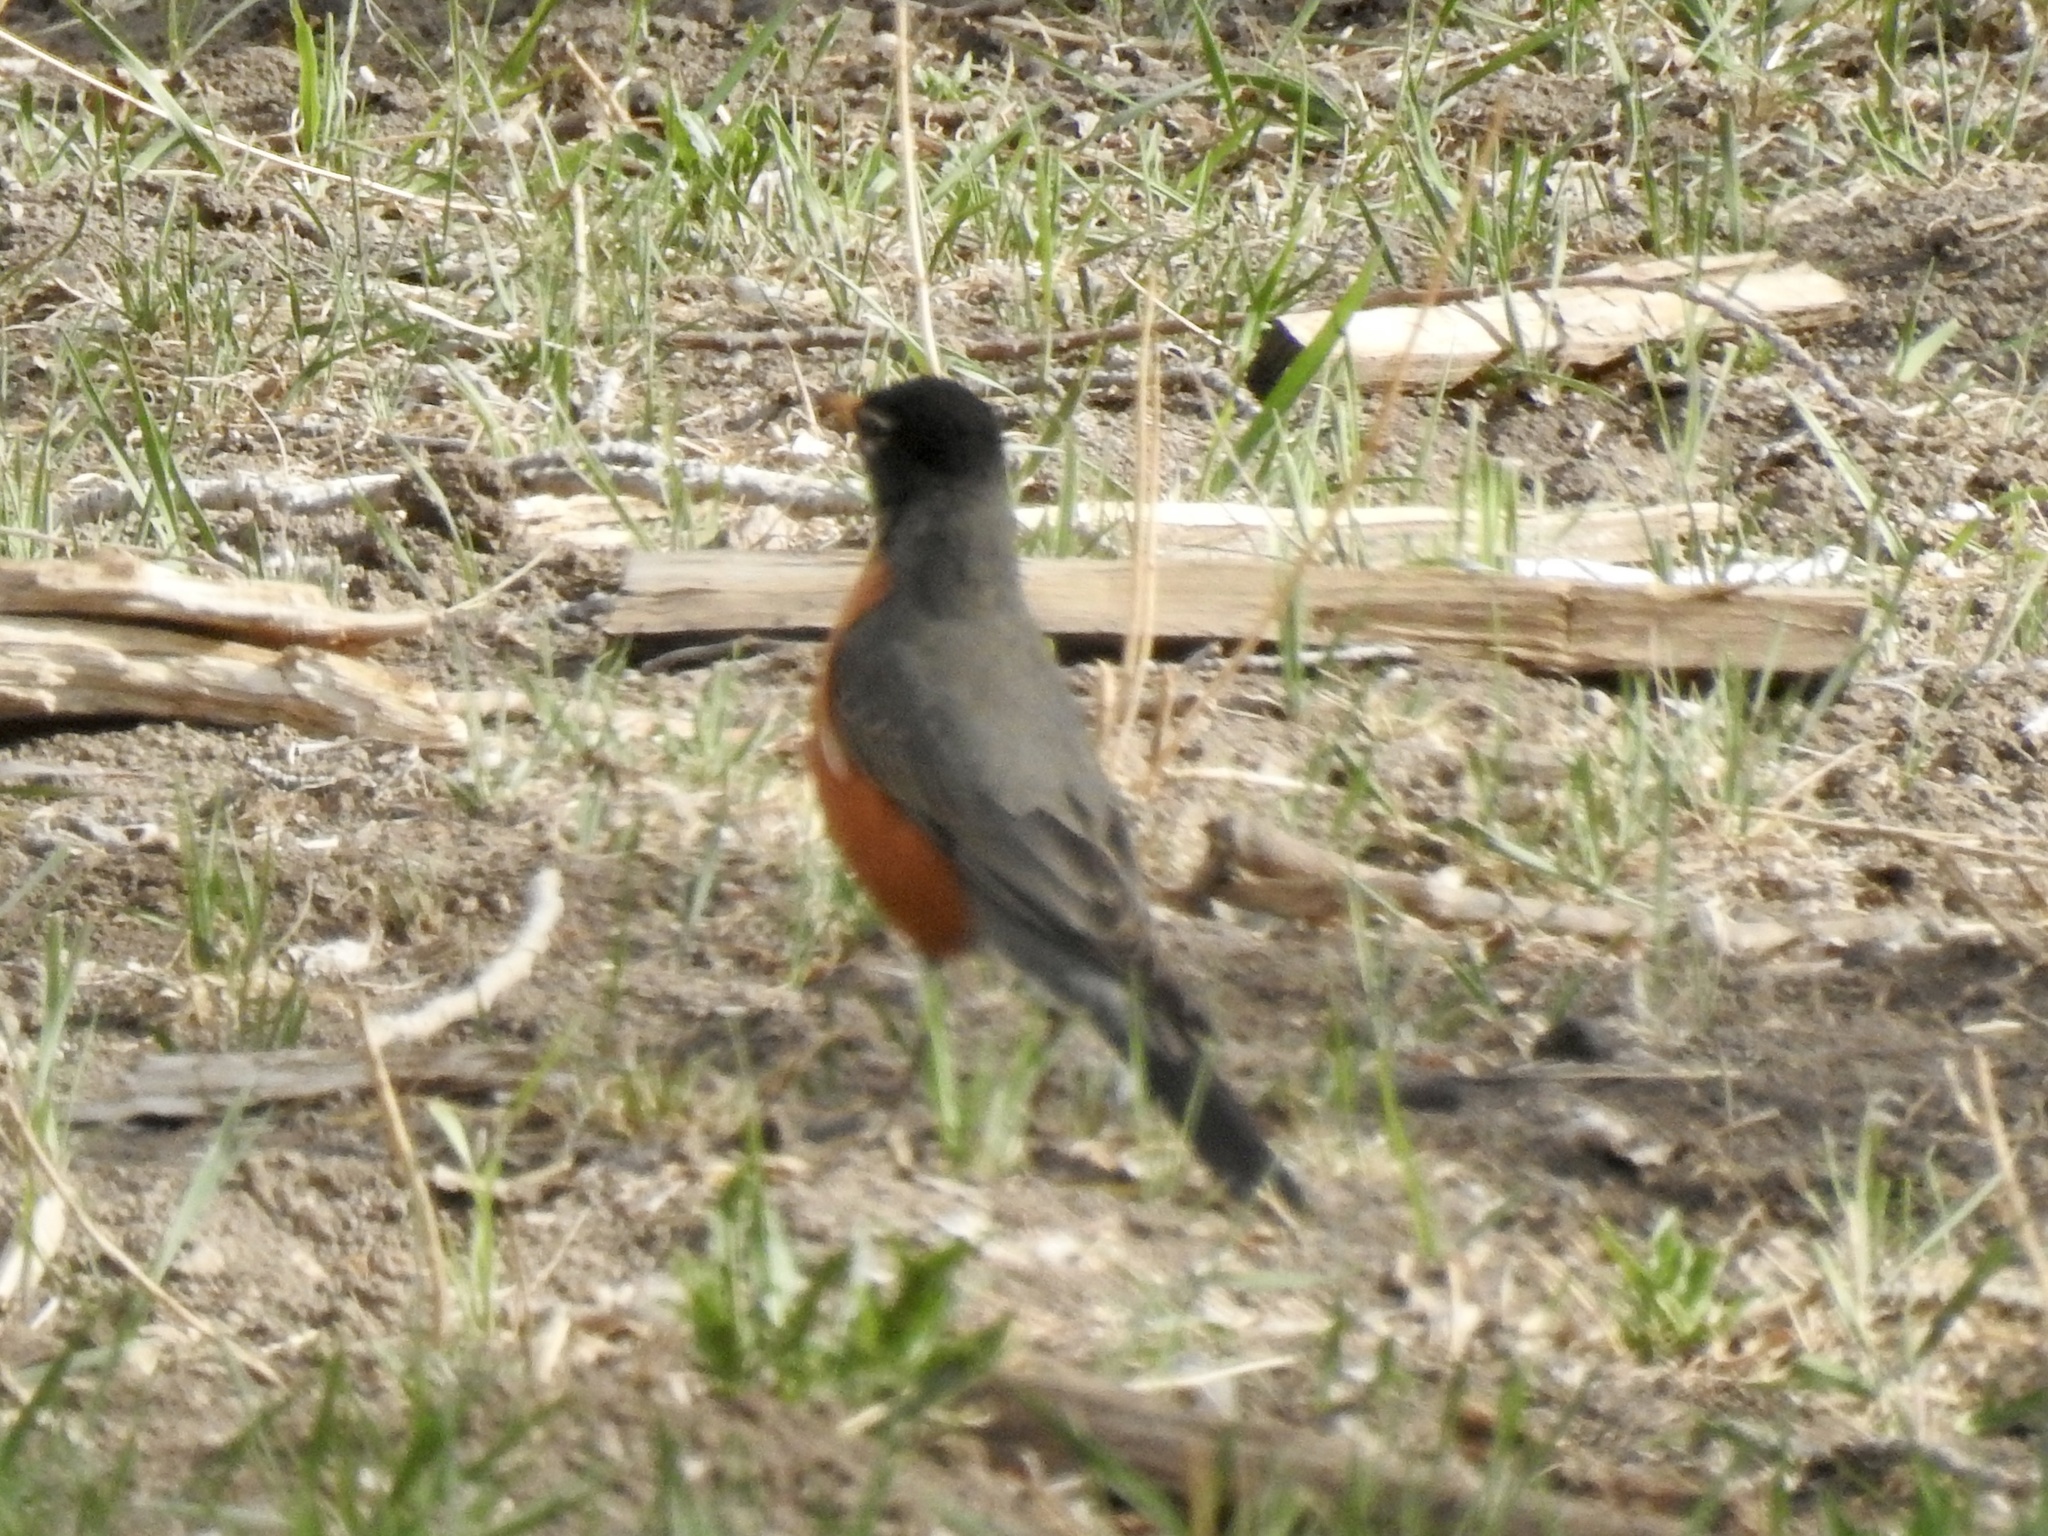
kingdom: Animalia
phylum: Chordata
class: Aves
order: Passeriformes
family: Turdidae
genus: Turdus
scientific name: Turdus migratorius
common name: American robin
